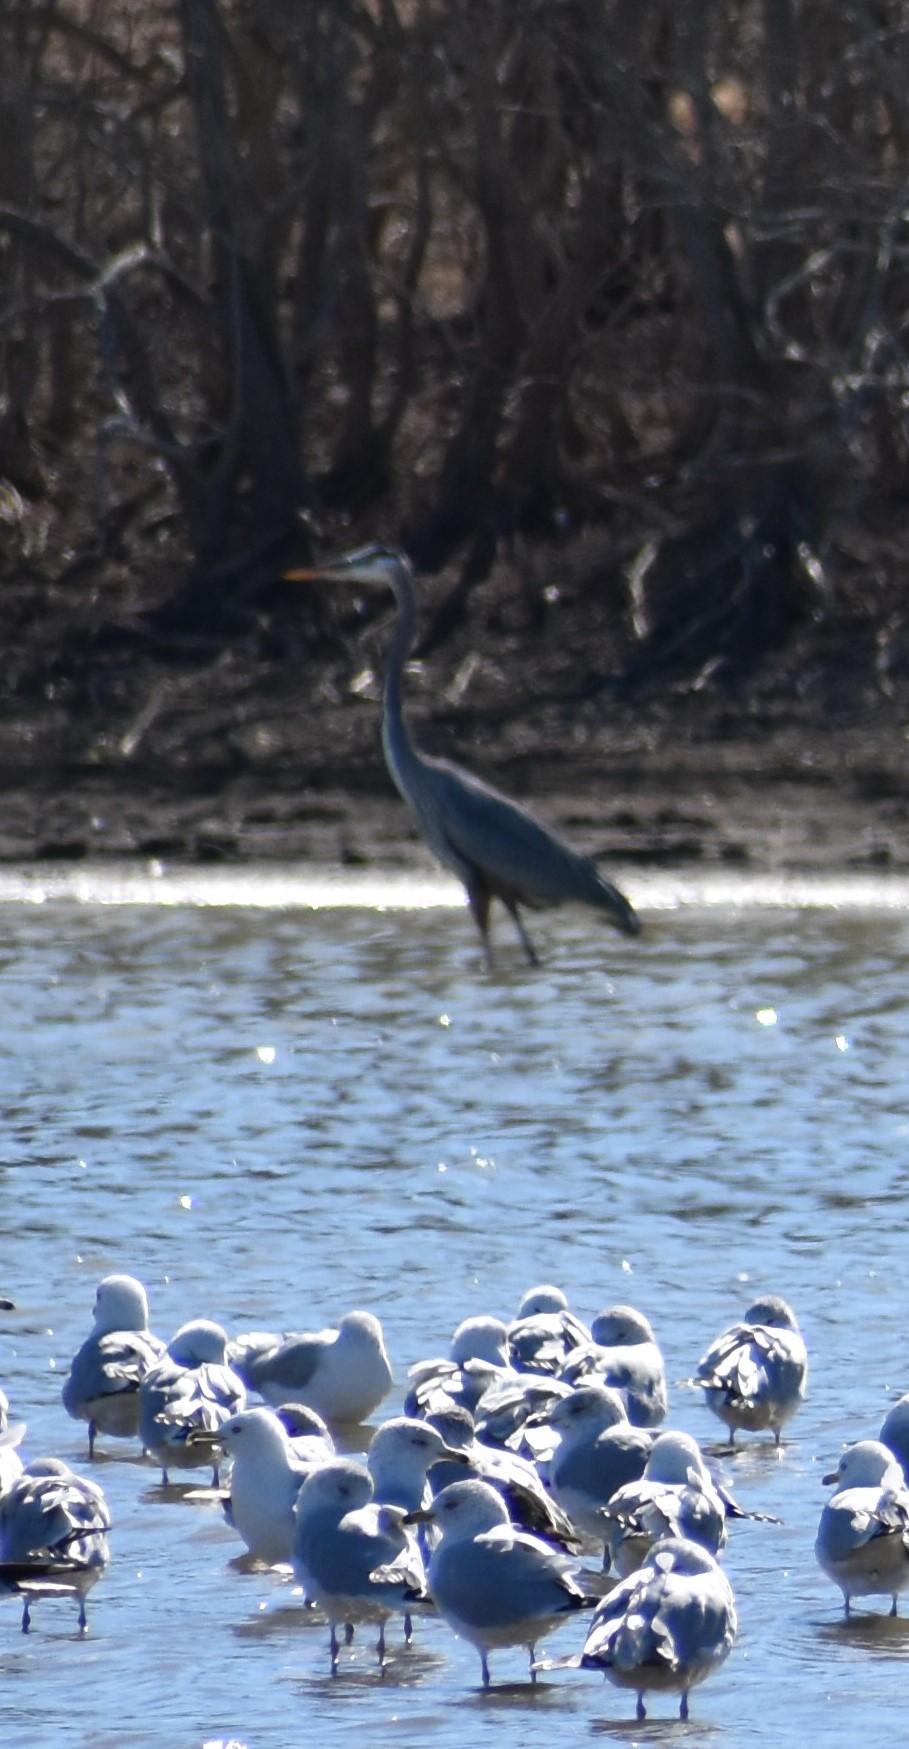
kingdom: Animalia
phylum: Chordata
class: Aves
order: Pelecaniformes
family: Ardeidae
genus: Ardea
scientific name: Ardea herodias
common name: Great blue heron
